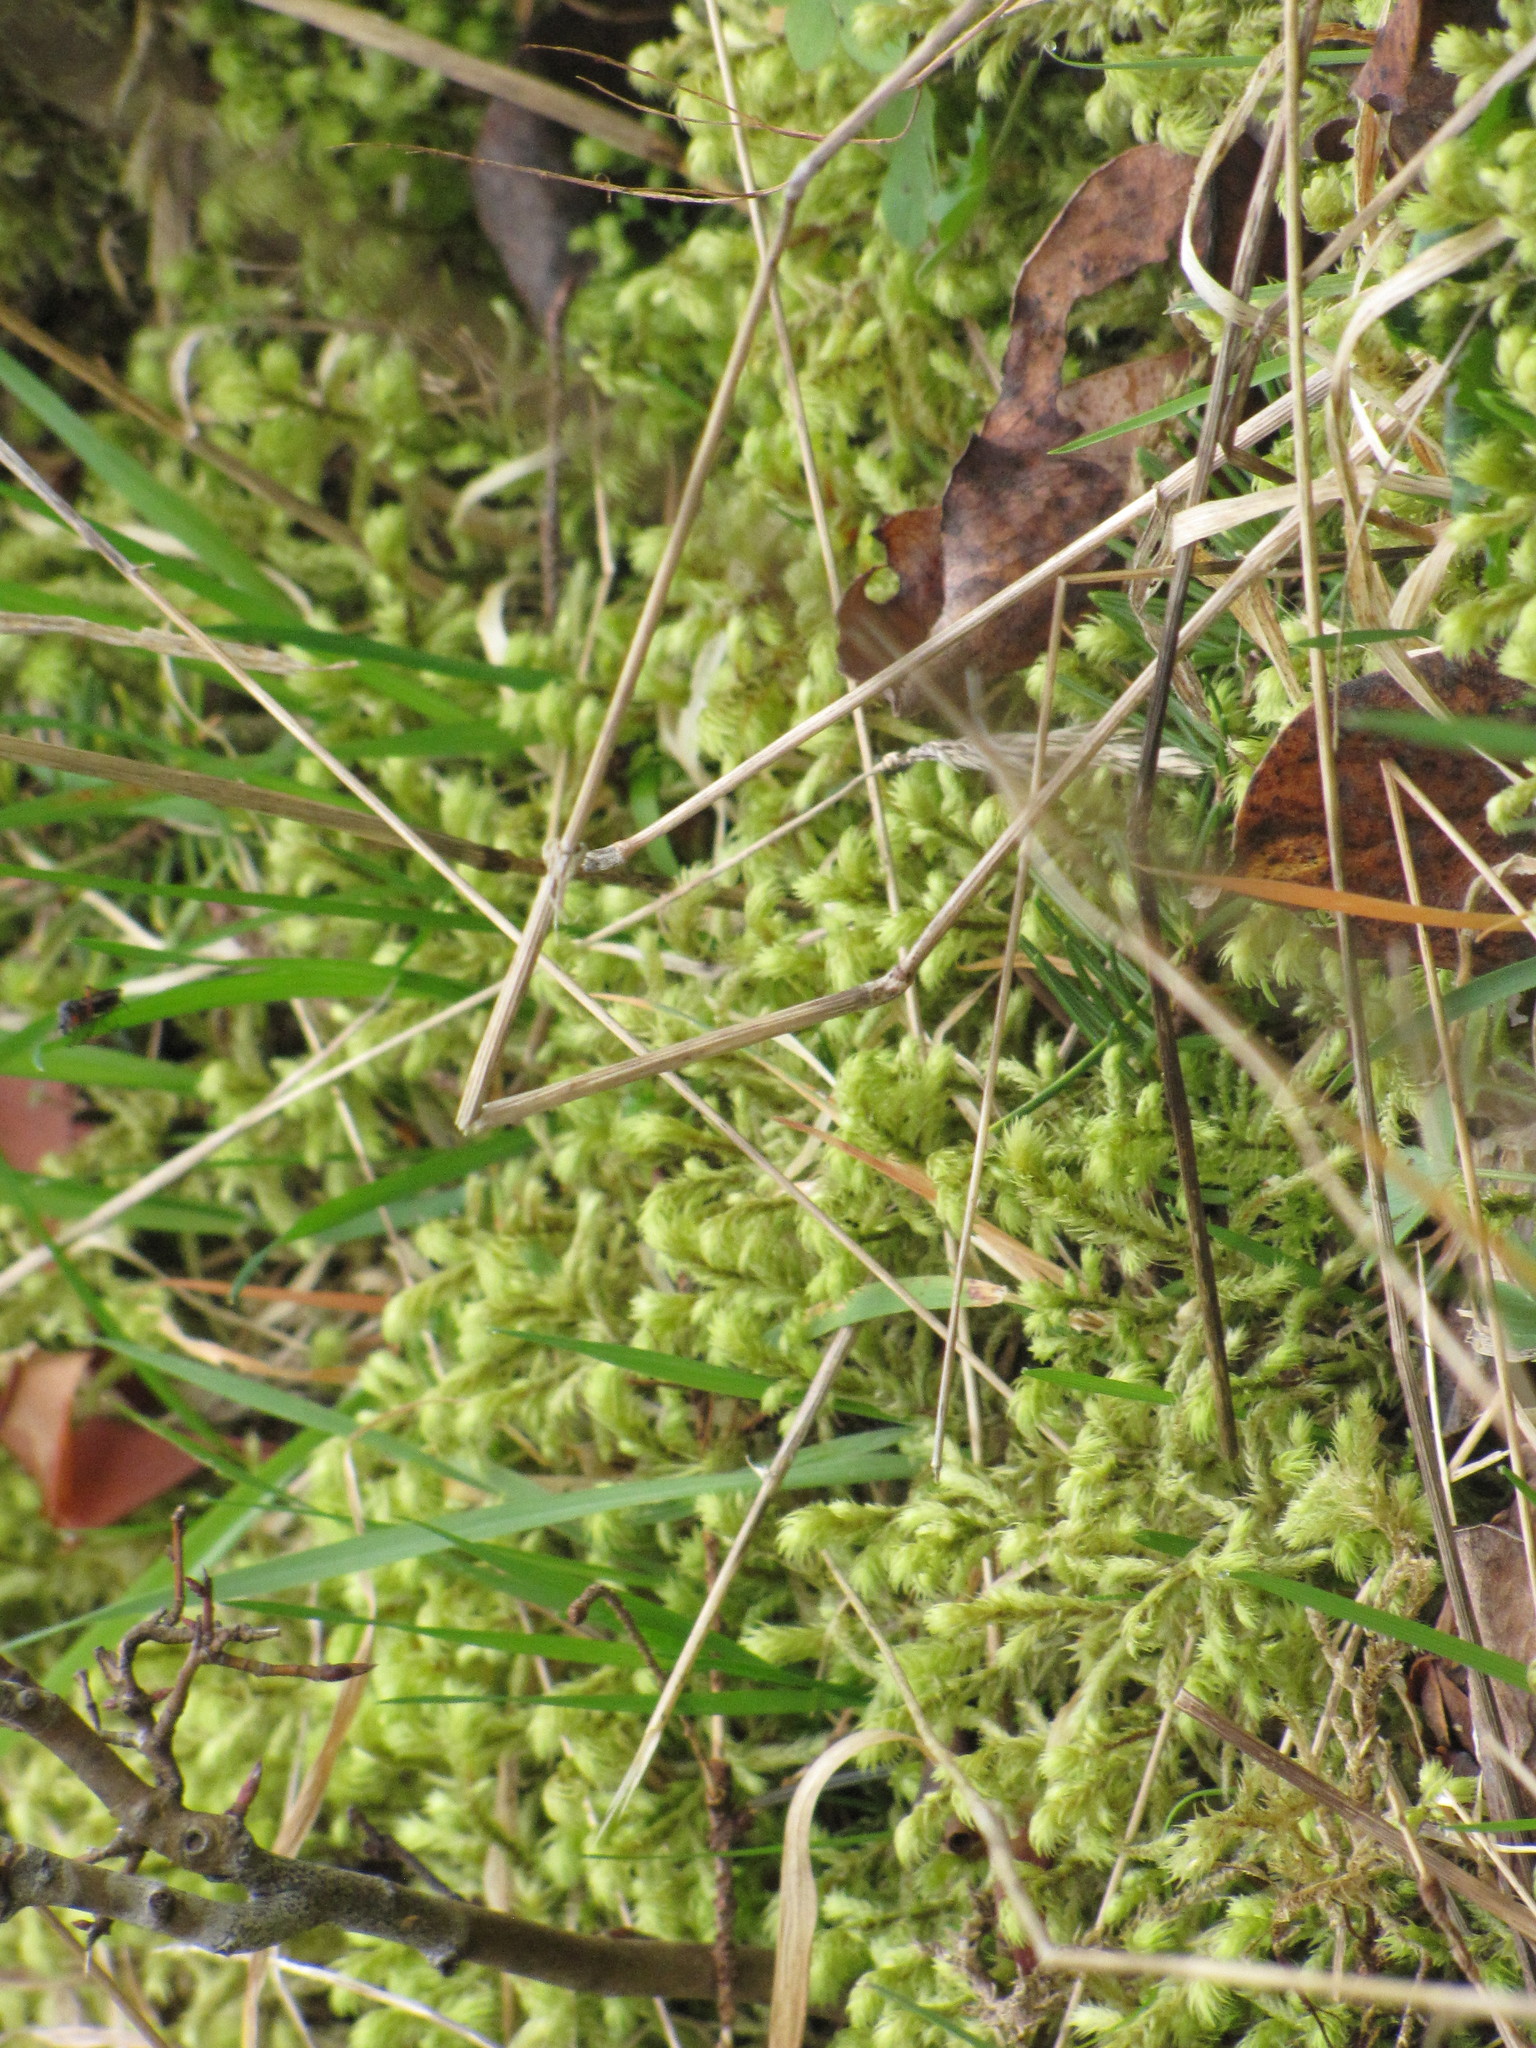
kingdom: Plantae
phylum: Bryophyta
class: Bryopsida
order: Hypnales
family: Hylocomiaceae
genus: Hylocomiadelphus
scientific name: Hylocomiadelphus triquetrus
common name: Rough goose neck moss
